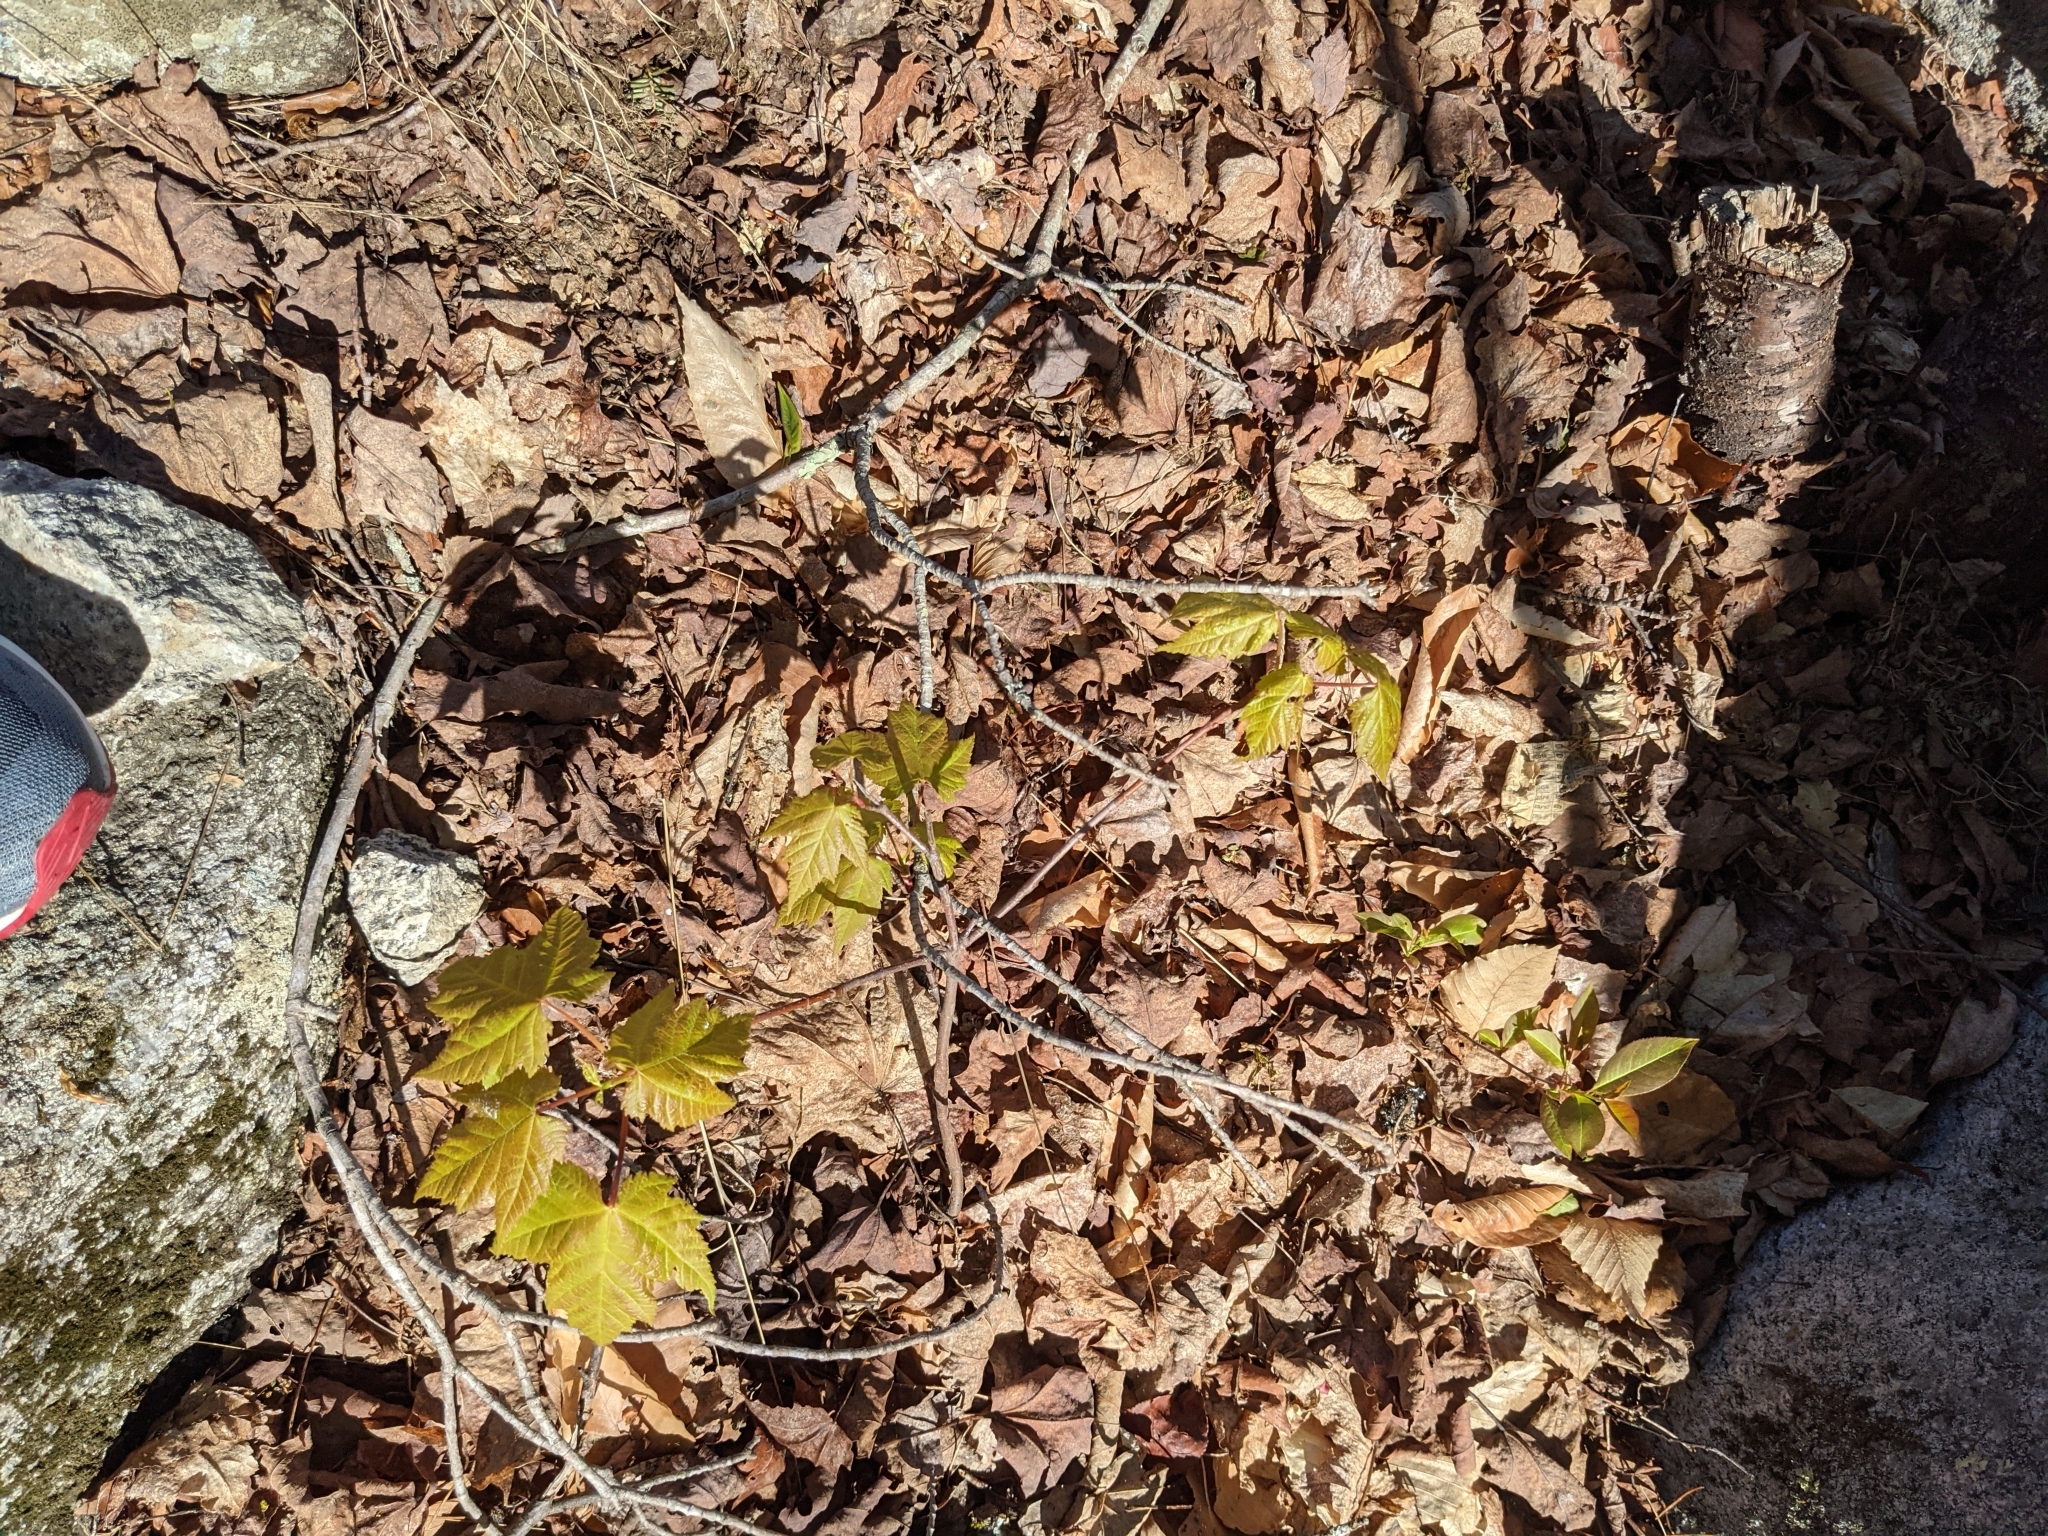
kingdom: Plantae
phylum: Tracheophyta
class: Magnoliopsida
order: Sapindales
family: Sapindaceae
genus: Acer
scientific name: Acer rubrum
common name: Red maple
